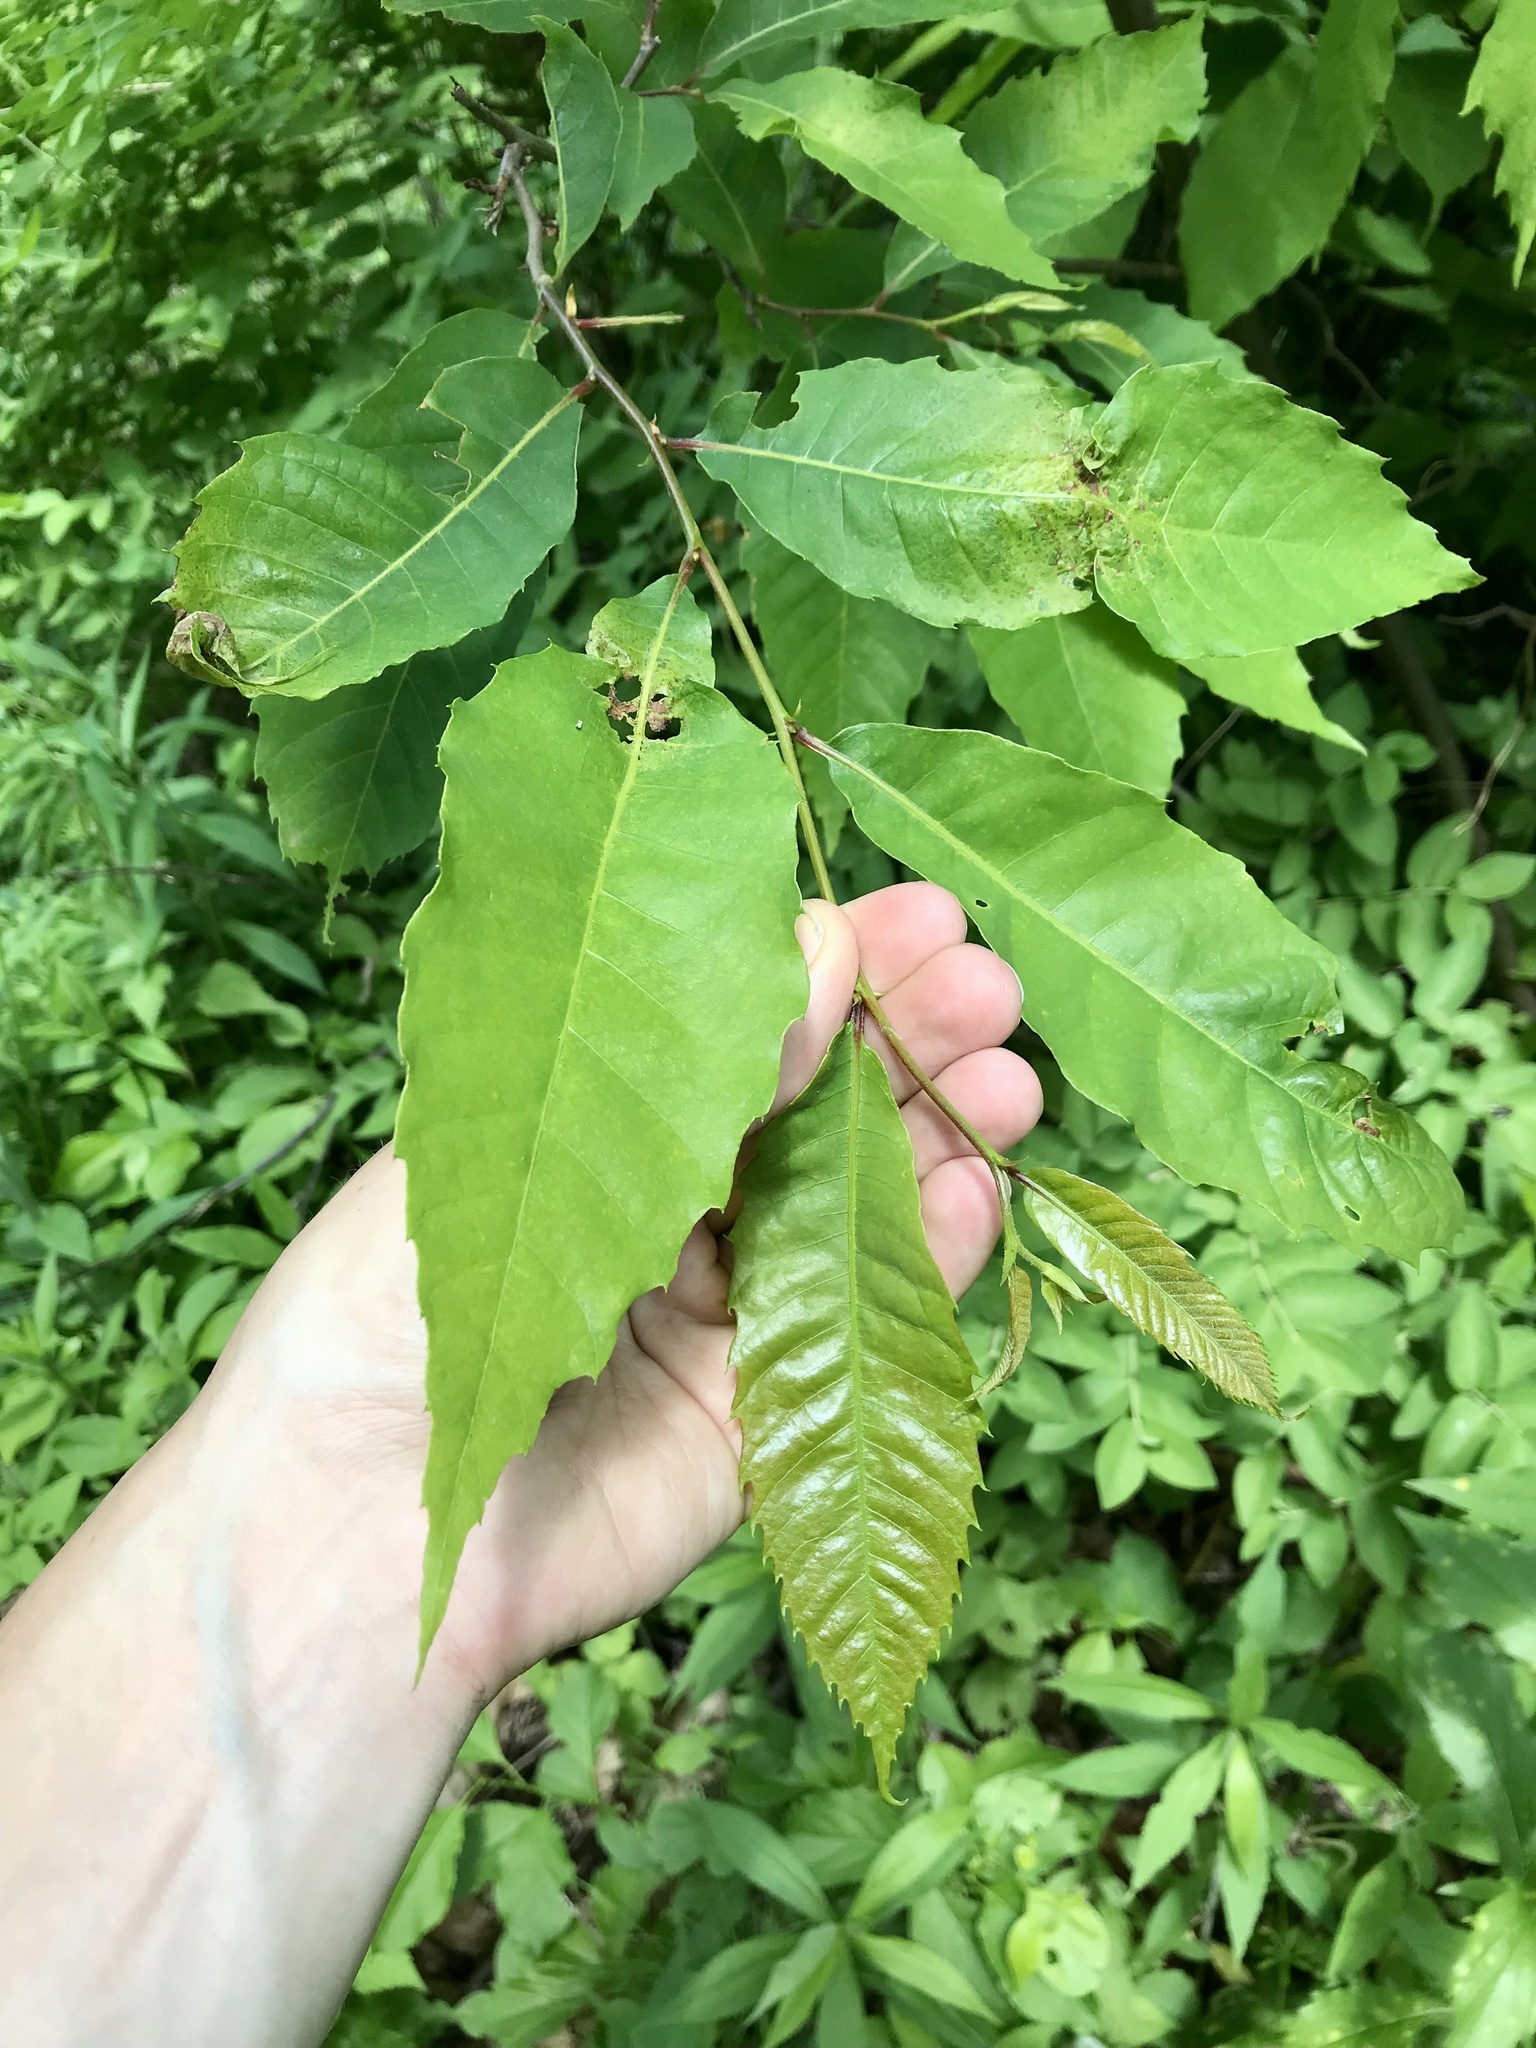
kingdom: Plantae
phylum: Tracheophyta
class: Magnoliopsida
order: Fagales
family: Fagaceae
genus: Castanea
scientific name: Castanea dentata
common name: American chestnut
